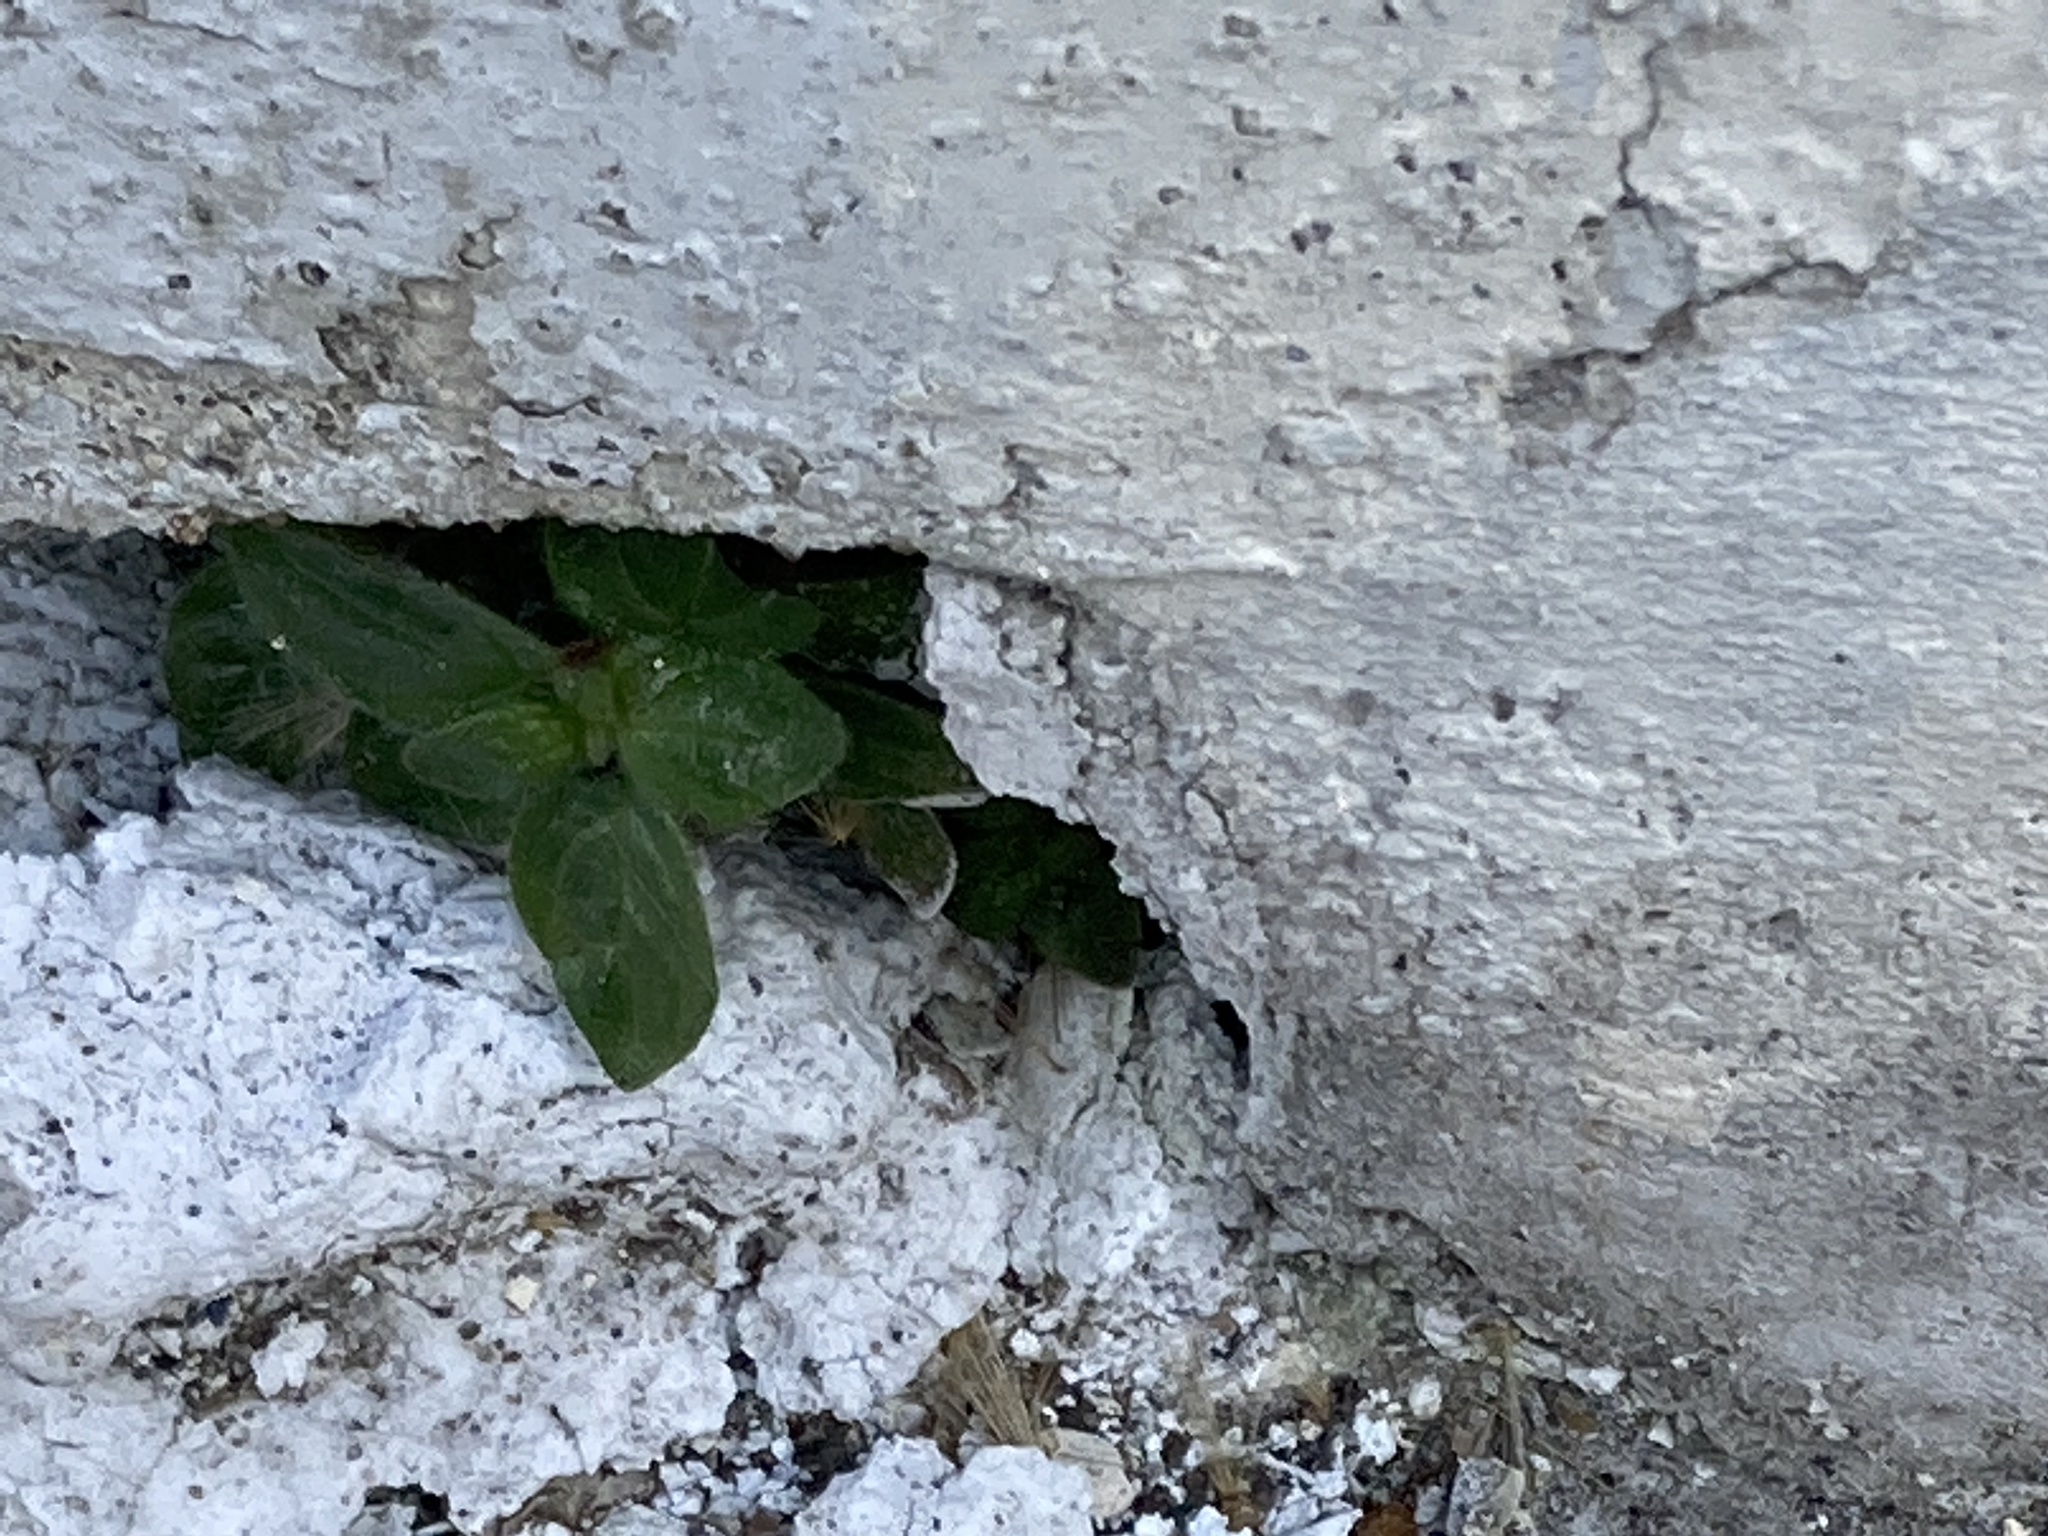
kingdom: Plantae
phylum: Tracheophyta
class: Magnoliopsida
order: Rosales
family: Urticaceae
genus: Parietaria
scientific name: Parietaria judaica
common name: Pellitory-of-the-wall
